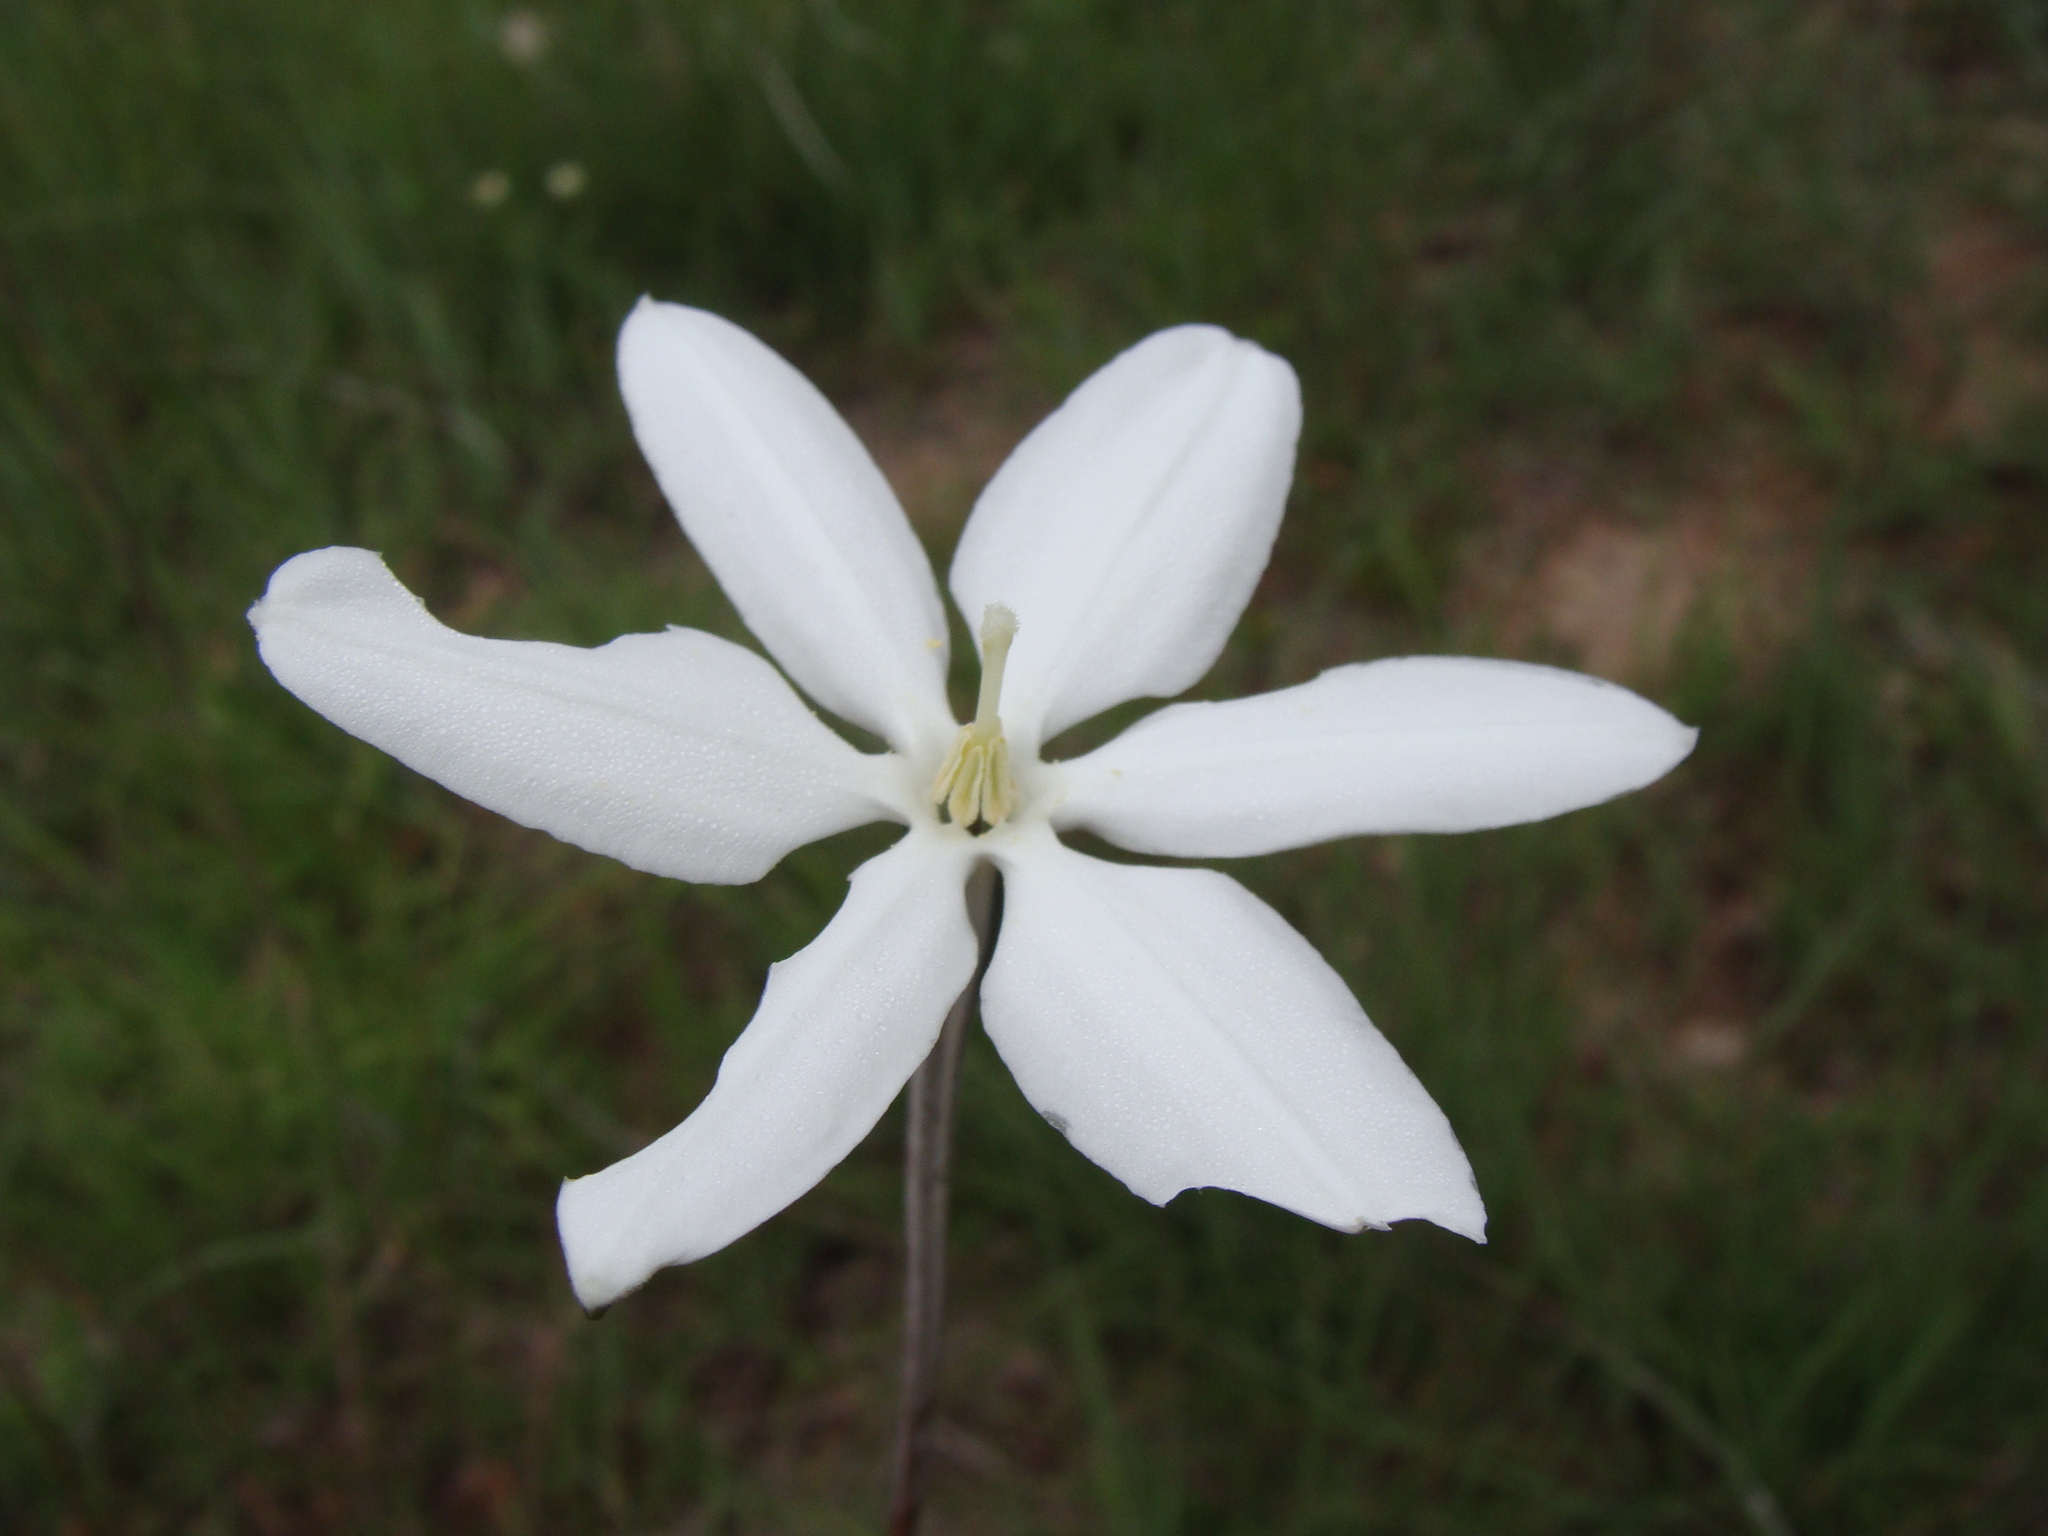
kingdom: Plantae
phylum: Tracheophyta
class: Liliopsida
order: Asparagales
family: Asparagaceae
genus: Milla
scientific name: Milla biflora
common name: Mexican-star
